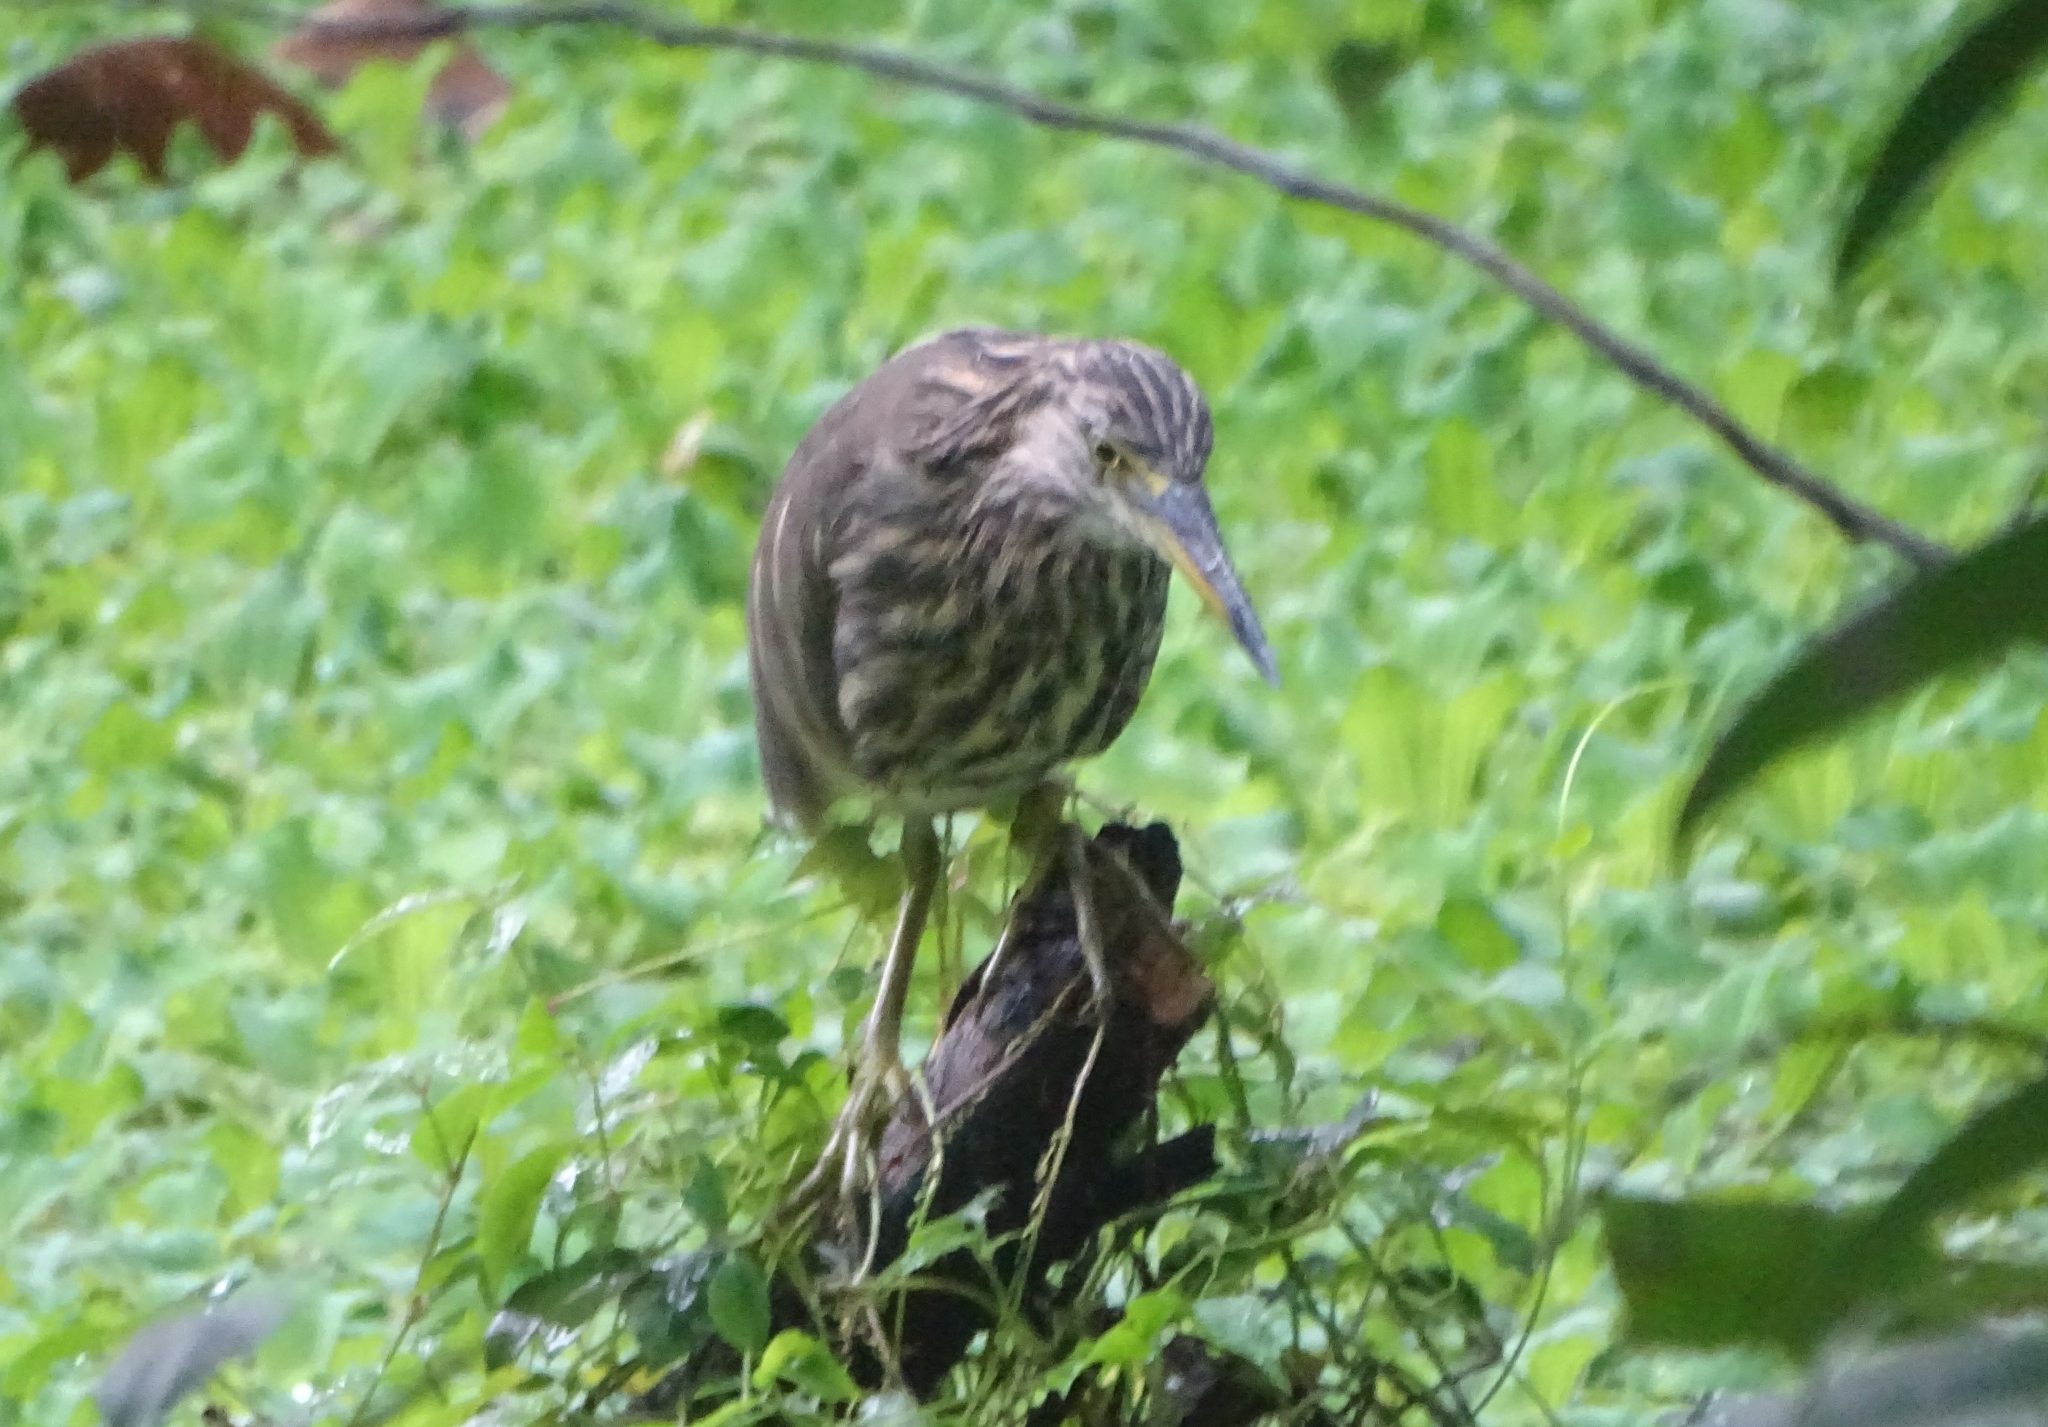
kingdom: Animalia
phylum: Chordata
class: Aves
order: Pelecaniformes
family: Ardeidae
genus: Ardeola
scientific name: Ardeola grayii
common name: Indian pond heron
